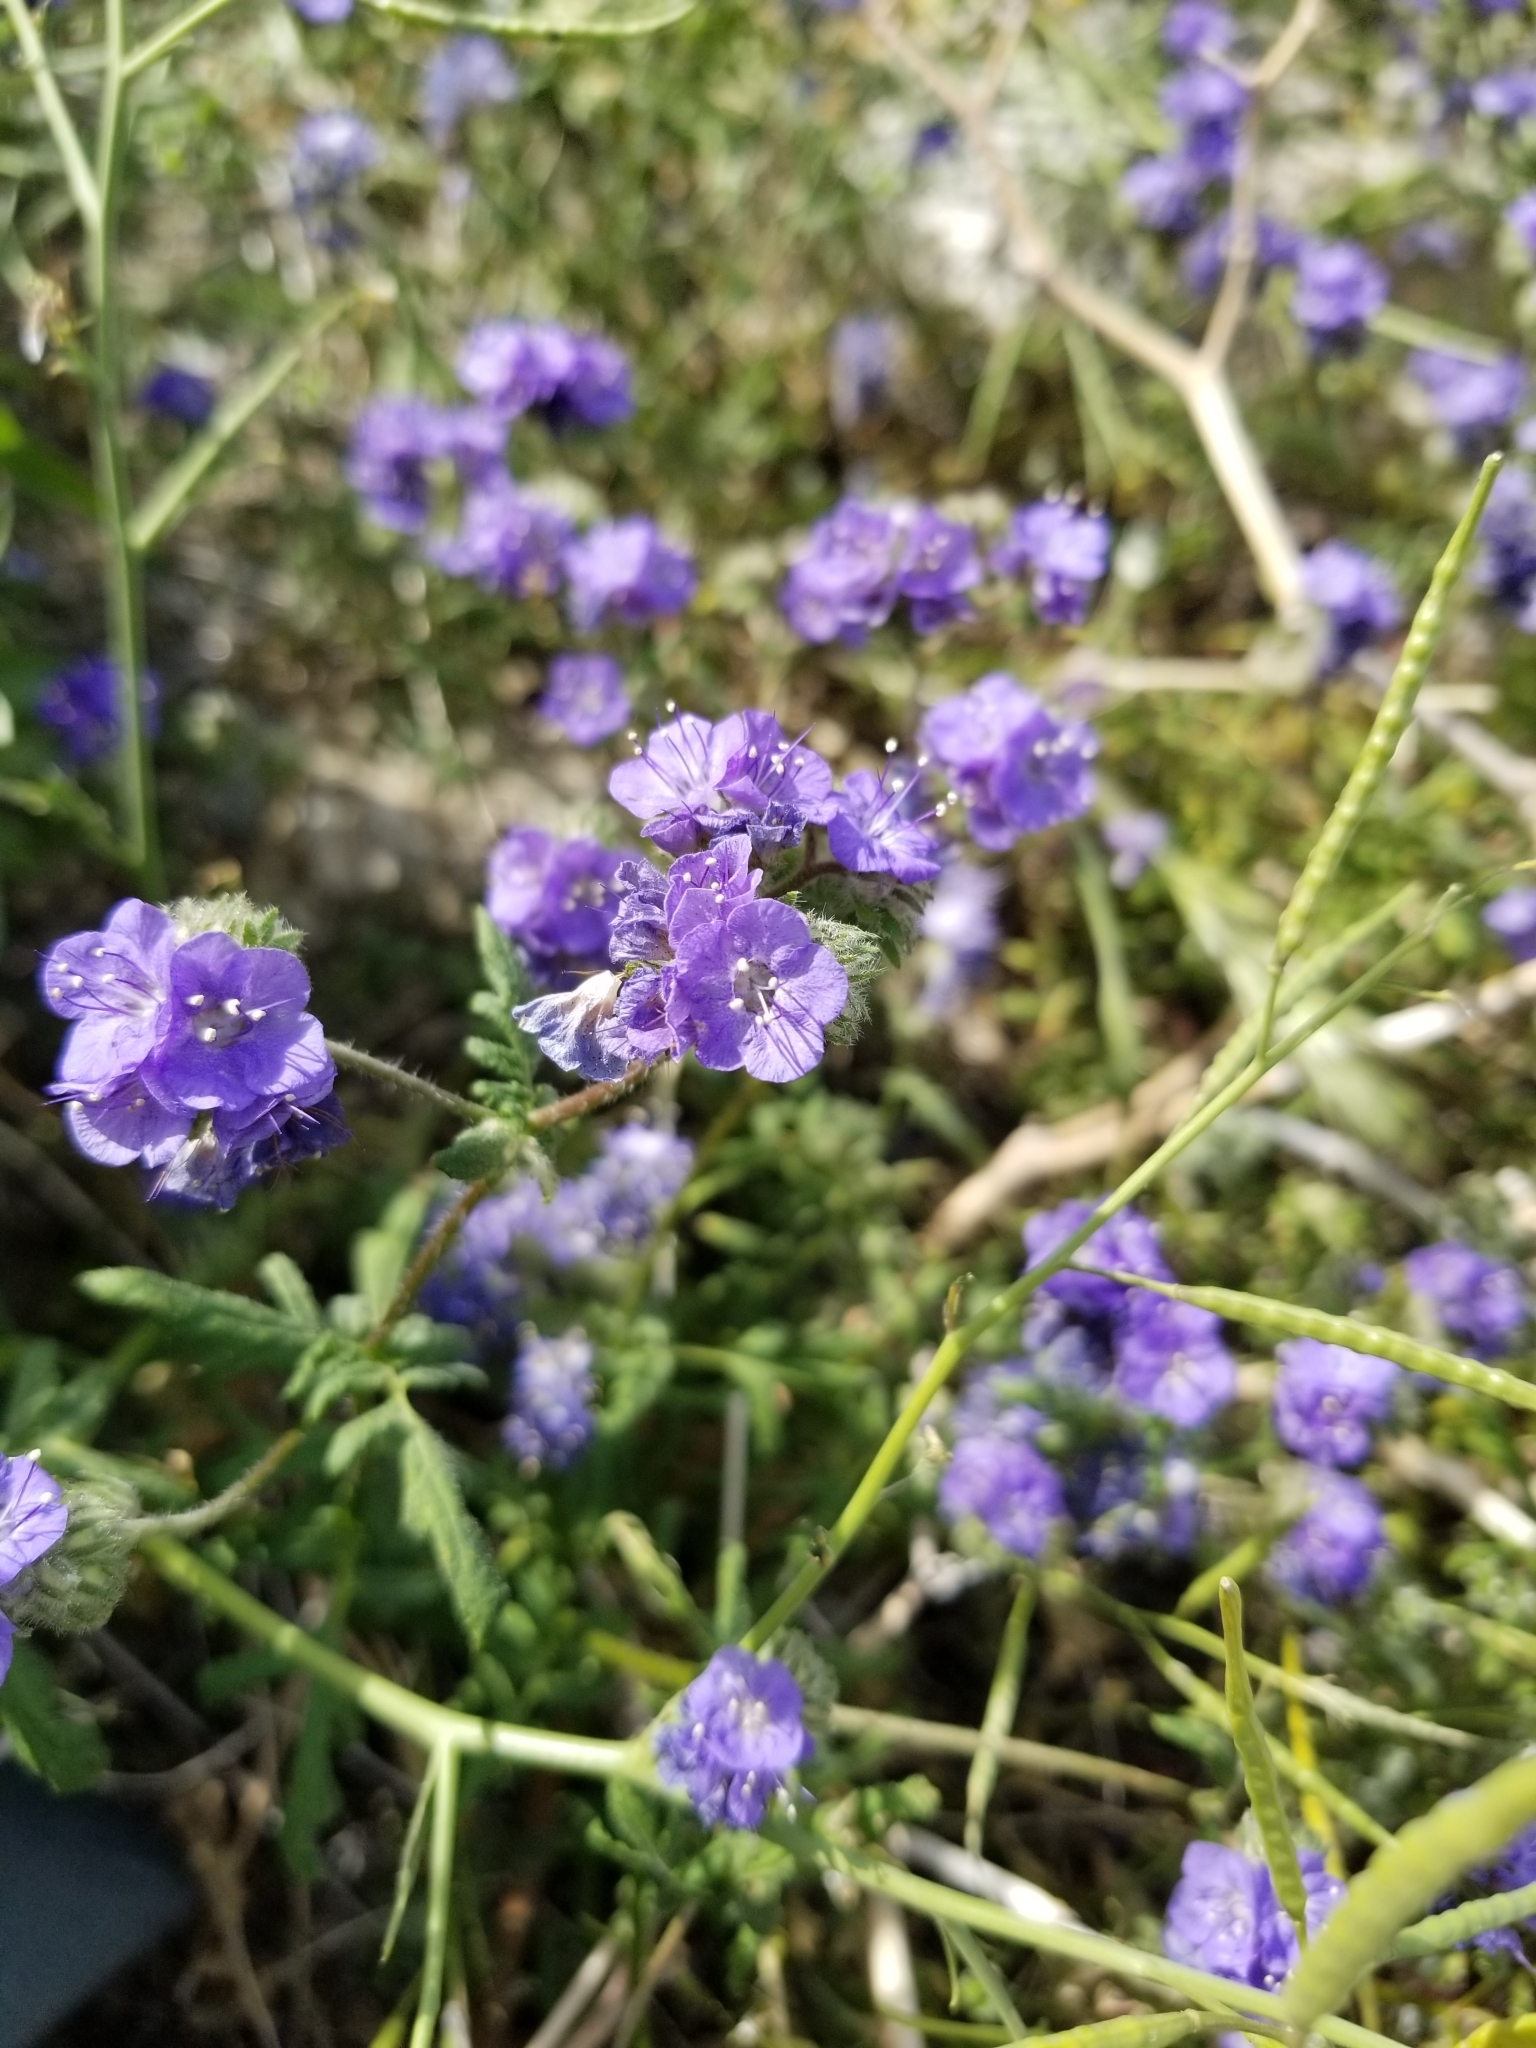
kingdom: Plantae
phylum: Tracheophyta
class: Magnoliopsida
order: Boraginales
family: Hydrophyllaceae
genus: Phacelia
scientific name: Phacelia distans
